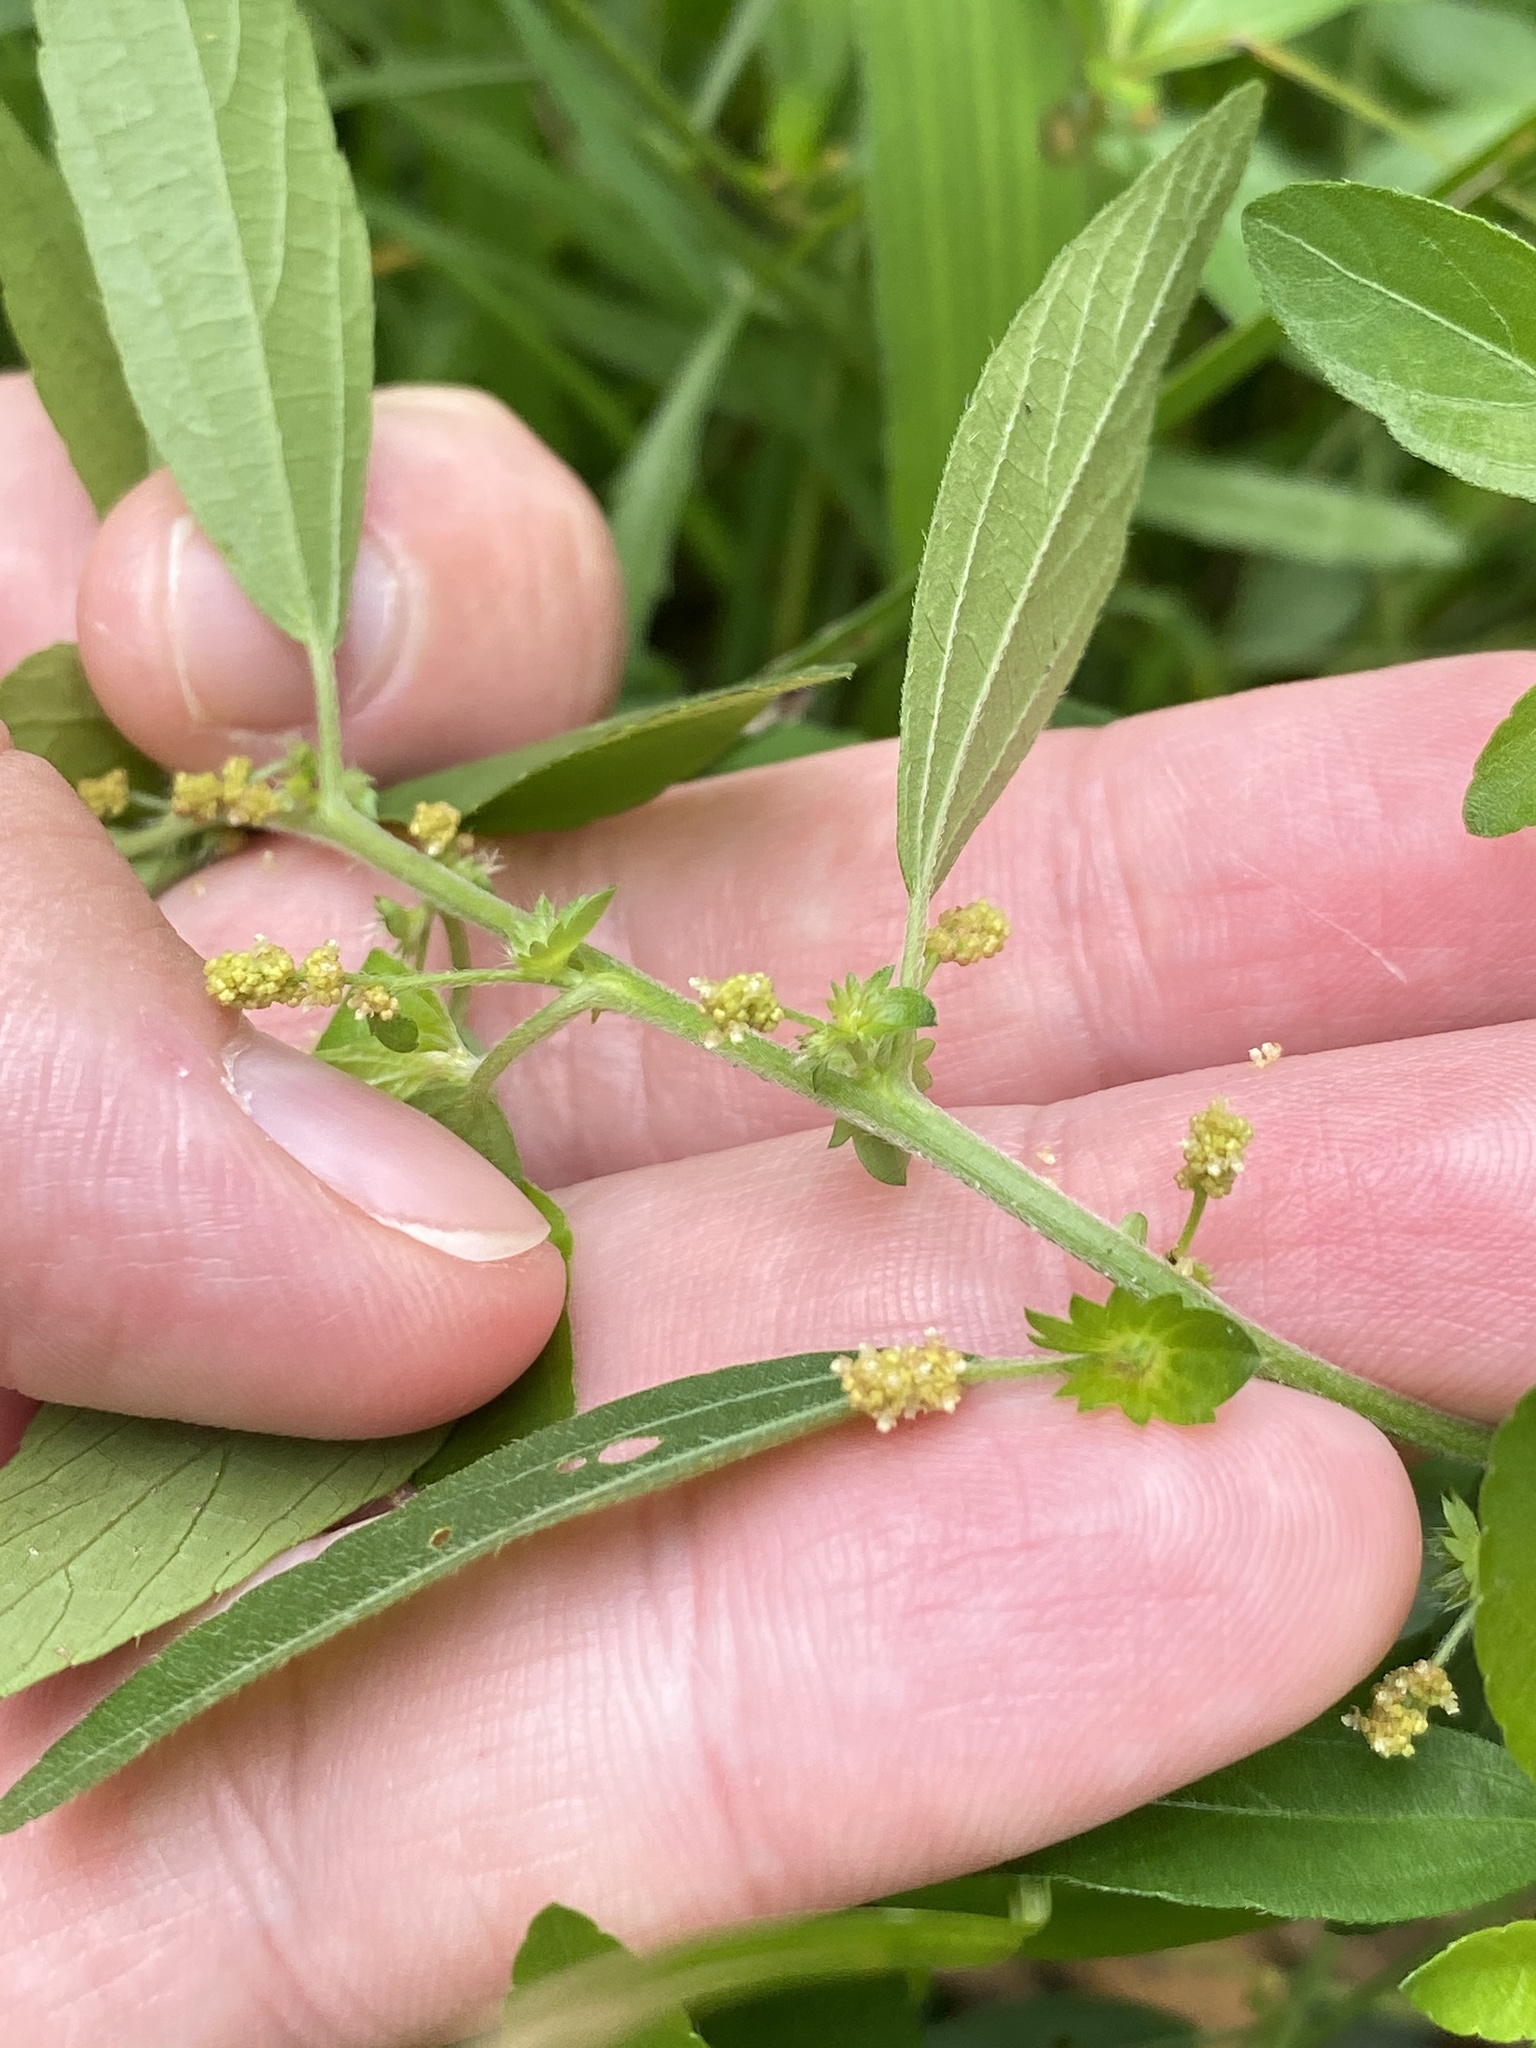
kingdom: Plantae
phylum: Tracheophyta
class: Magnoliopsida
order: Malpighiales
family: Euphorbiaceae
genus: Acalypha
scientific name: Acalypha gracilens
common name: Slender three-seeded mercury
